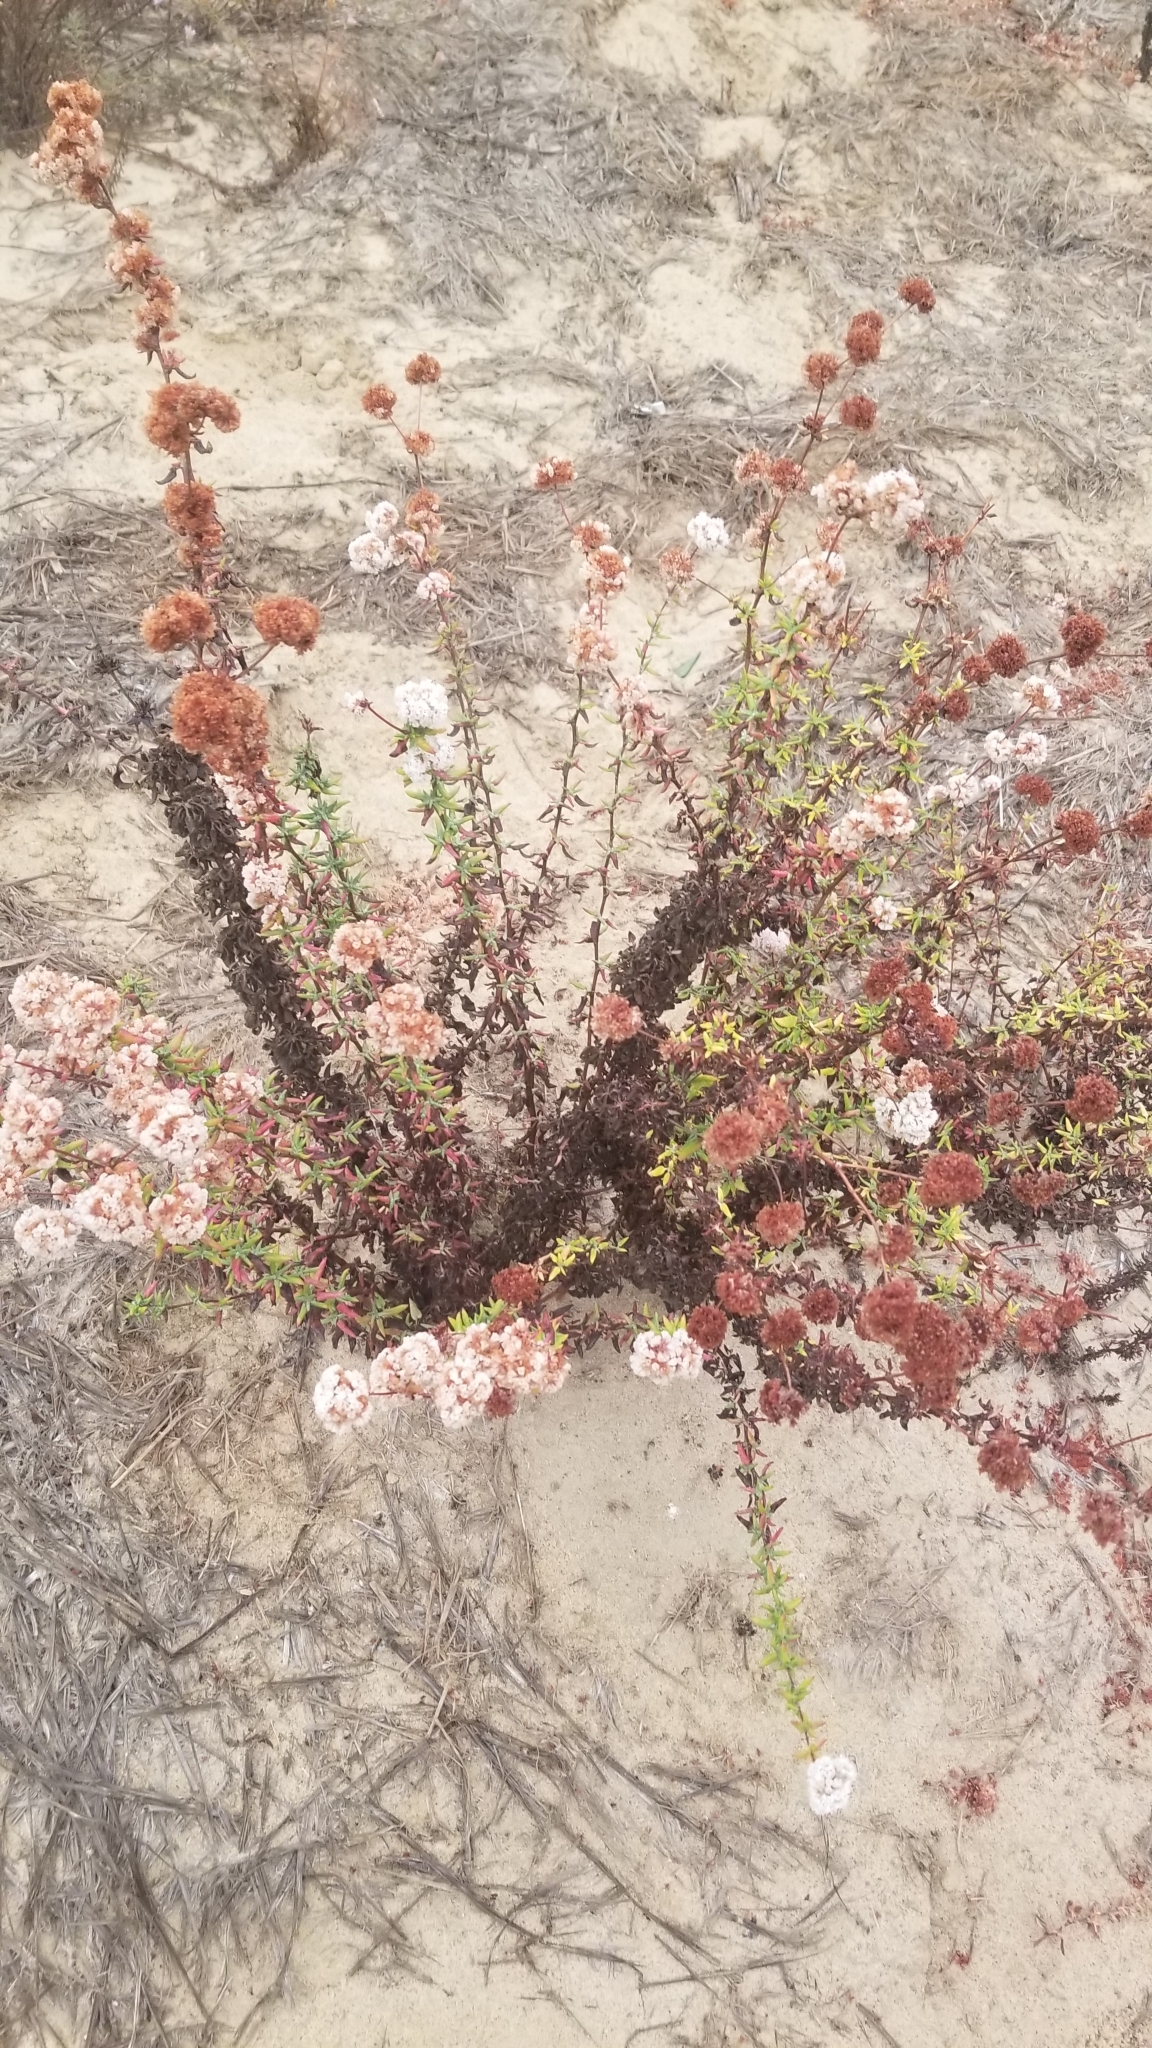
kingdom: Plantae
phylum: Tracheophyta
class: Magnoliopsida
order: Caryophyllales
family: Polygonaceae
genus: Eriogonum
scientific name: Eriogonum parvifolium
